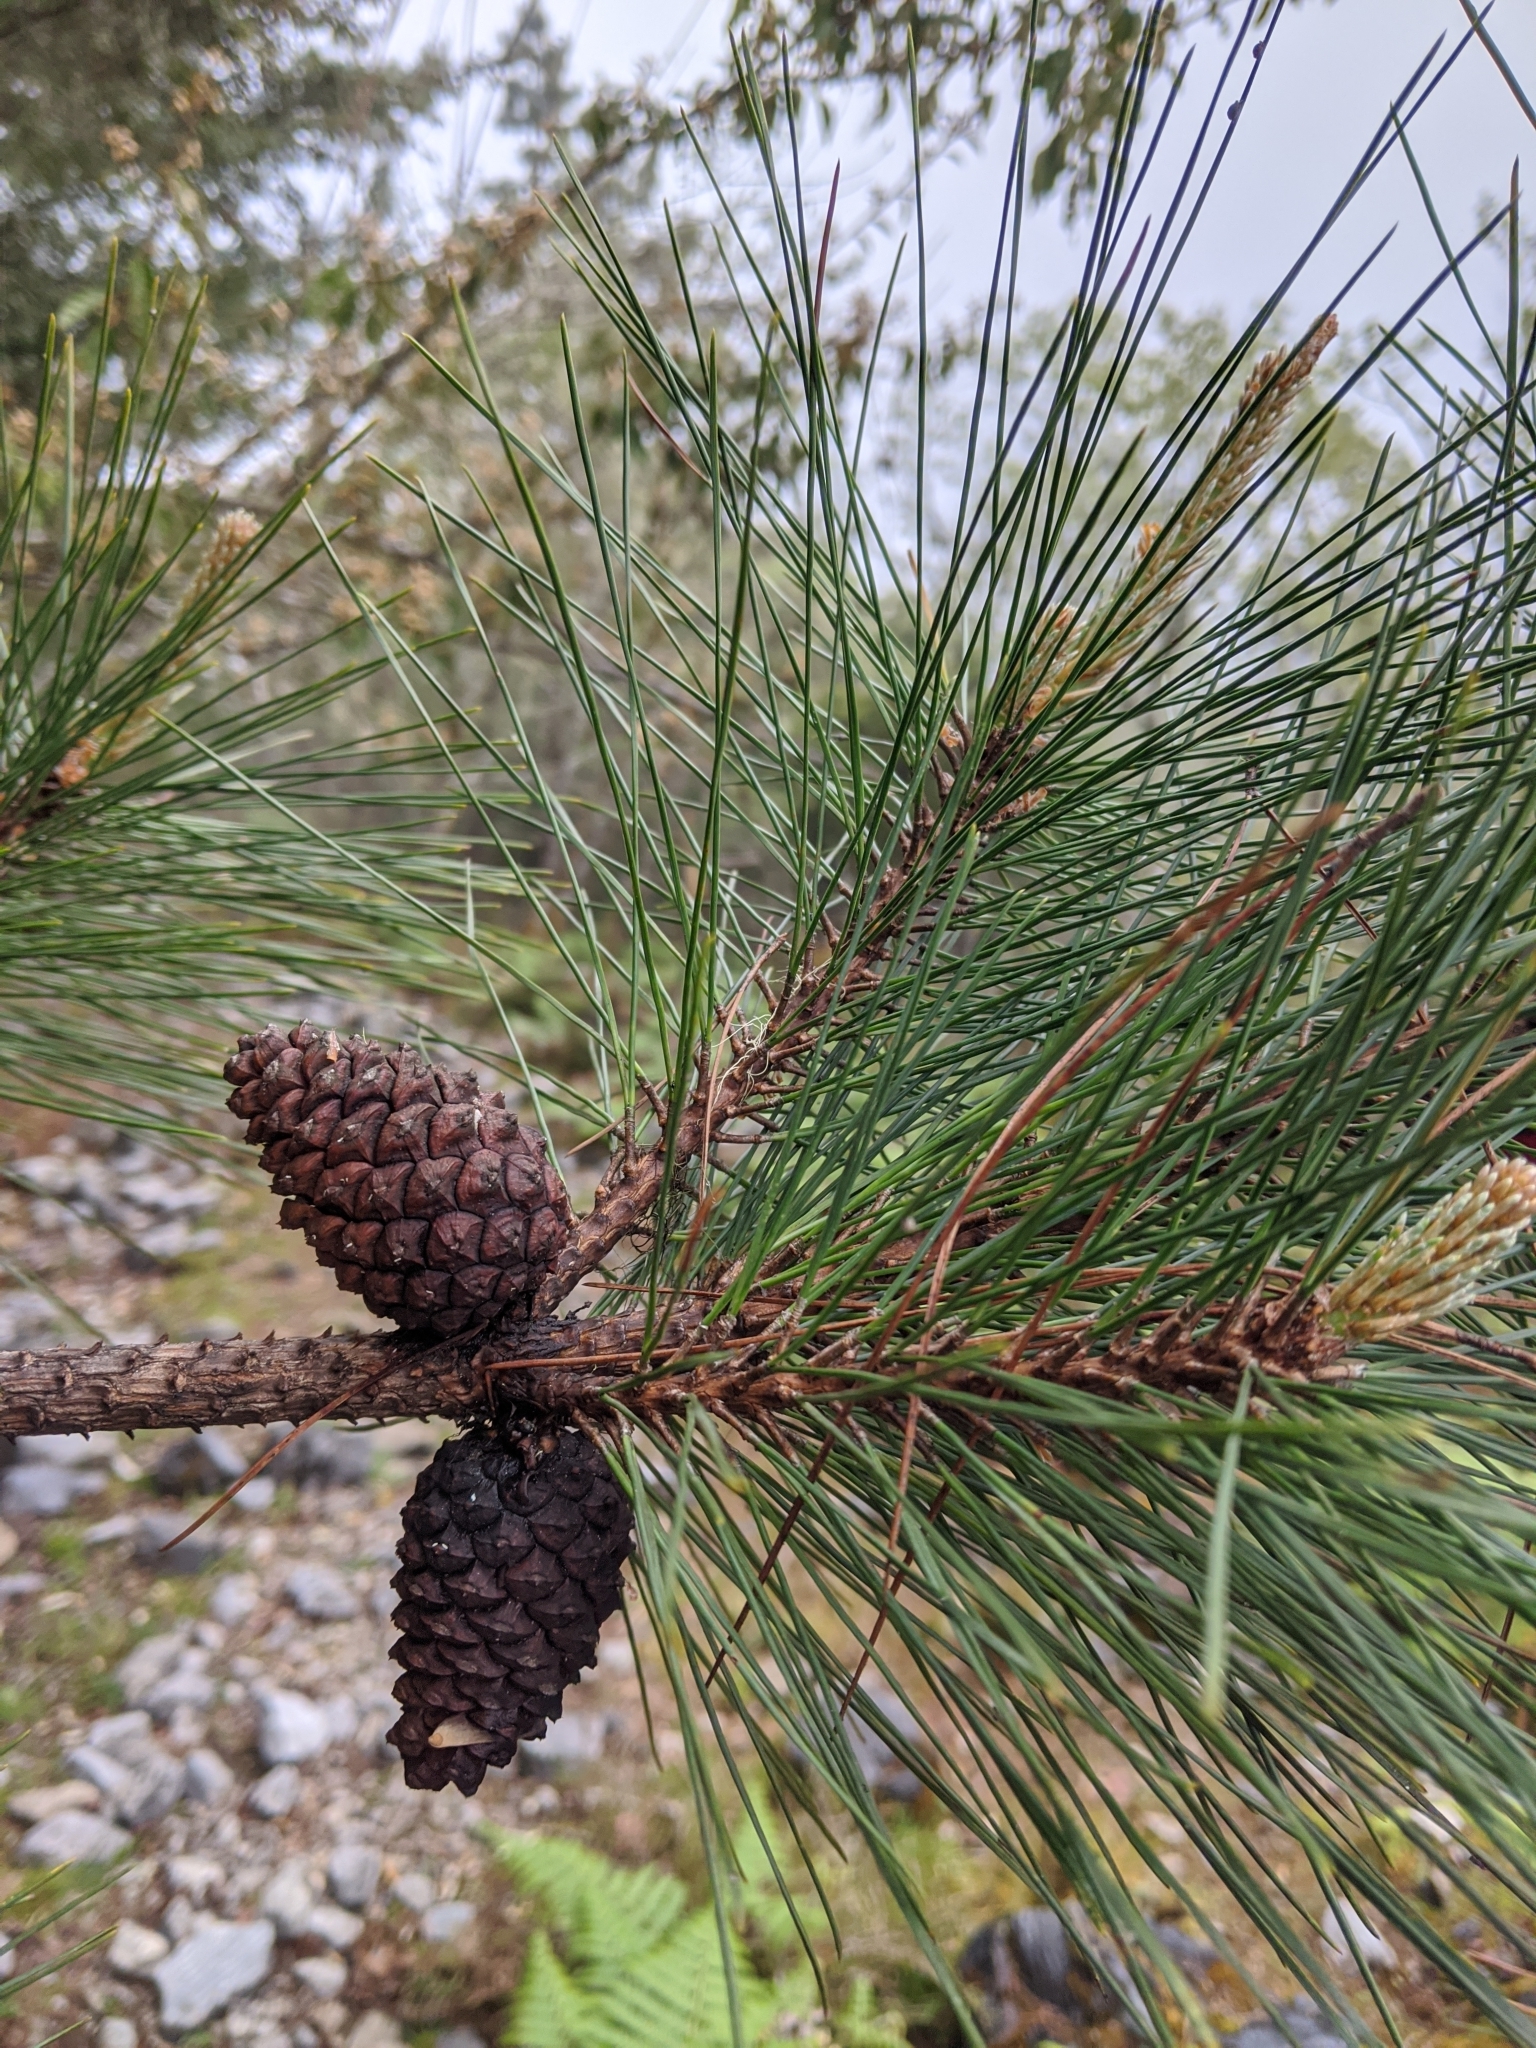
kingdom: Plantae
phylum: Tracheophyta
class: Pinopsida
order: Pinales
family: Pinaceae
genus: Pinus
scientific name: Pinus taiwanensis
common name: Formosa pine
